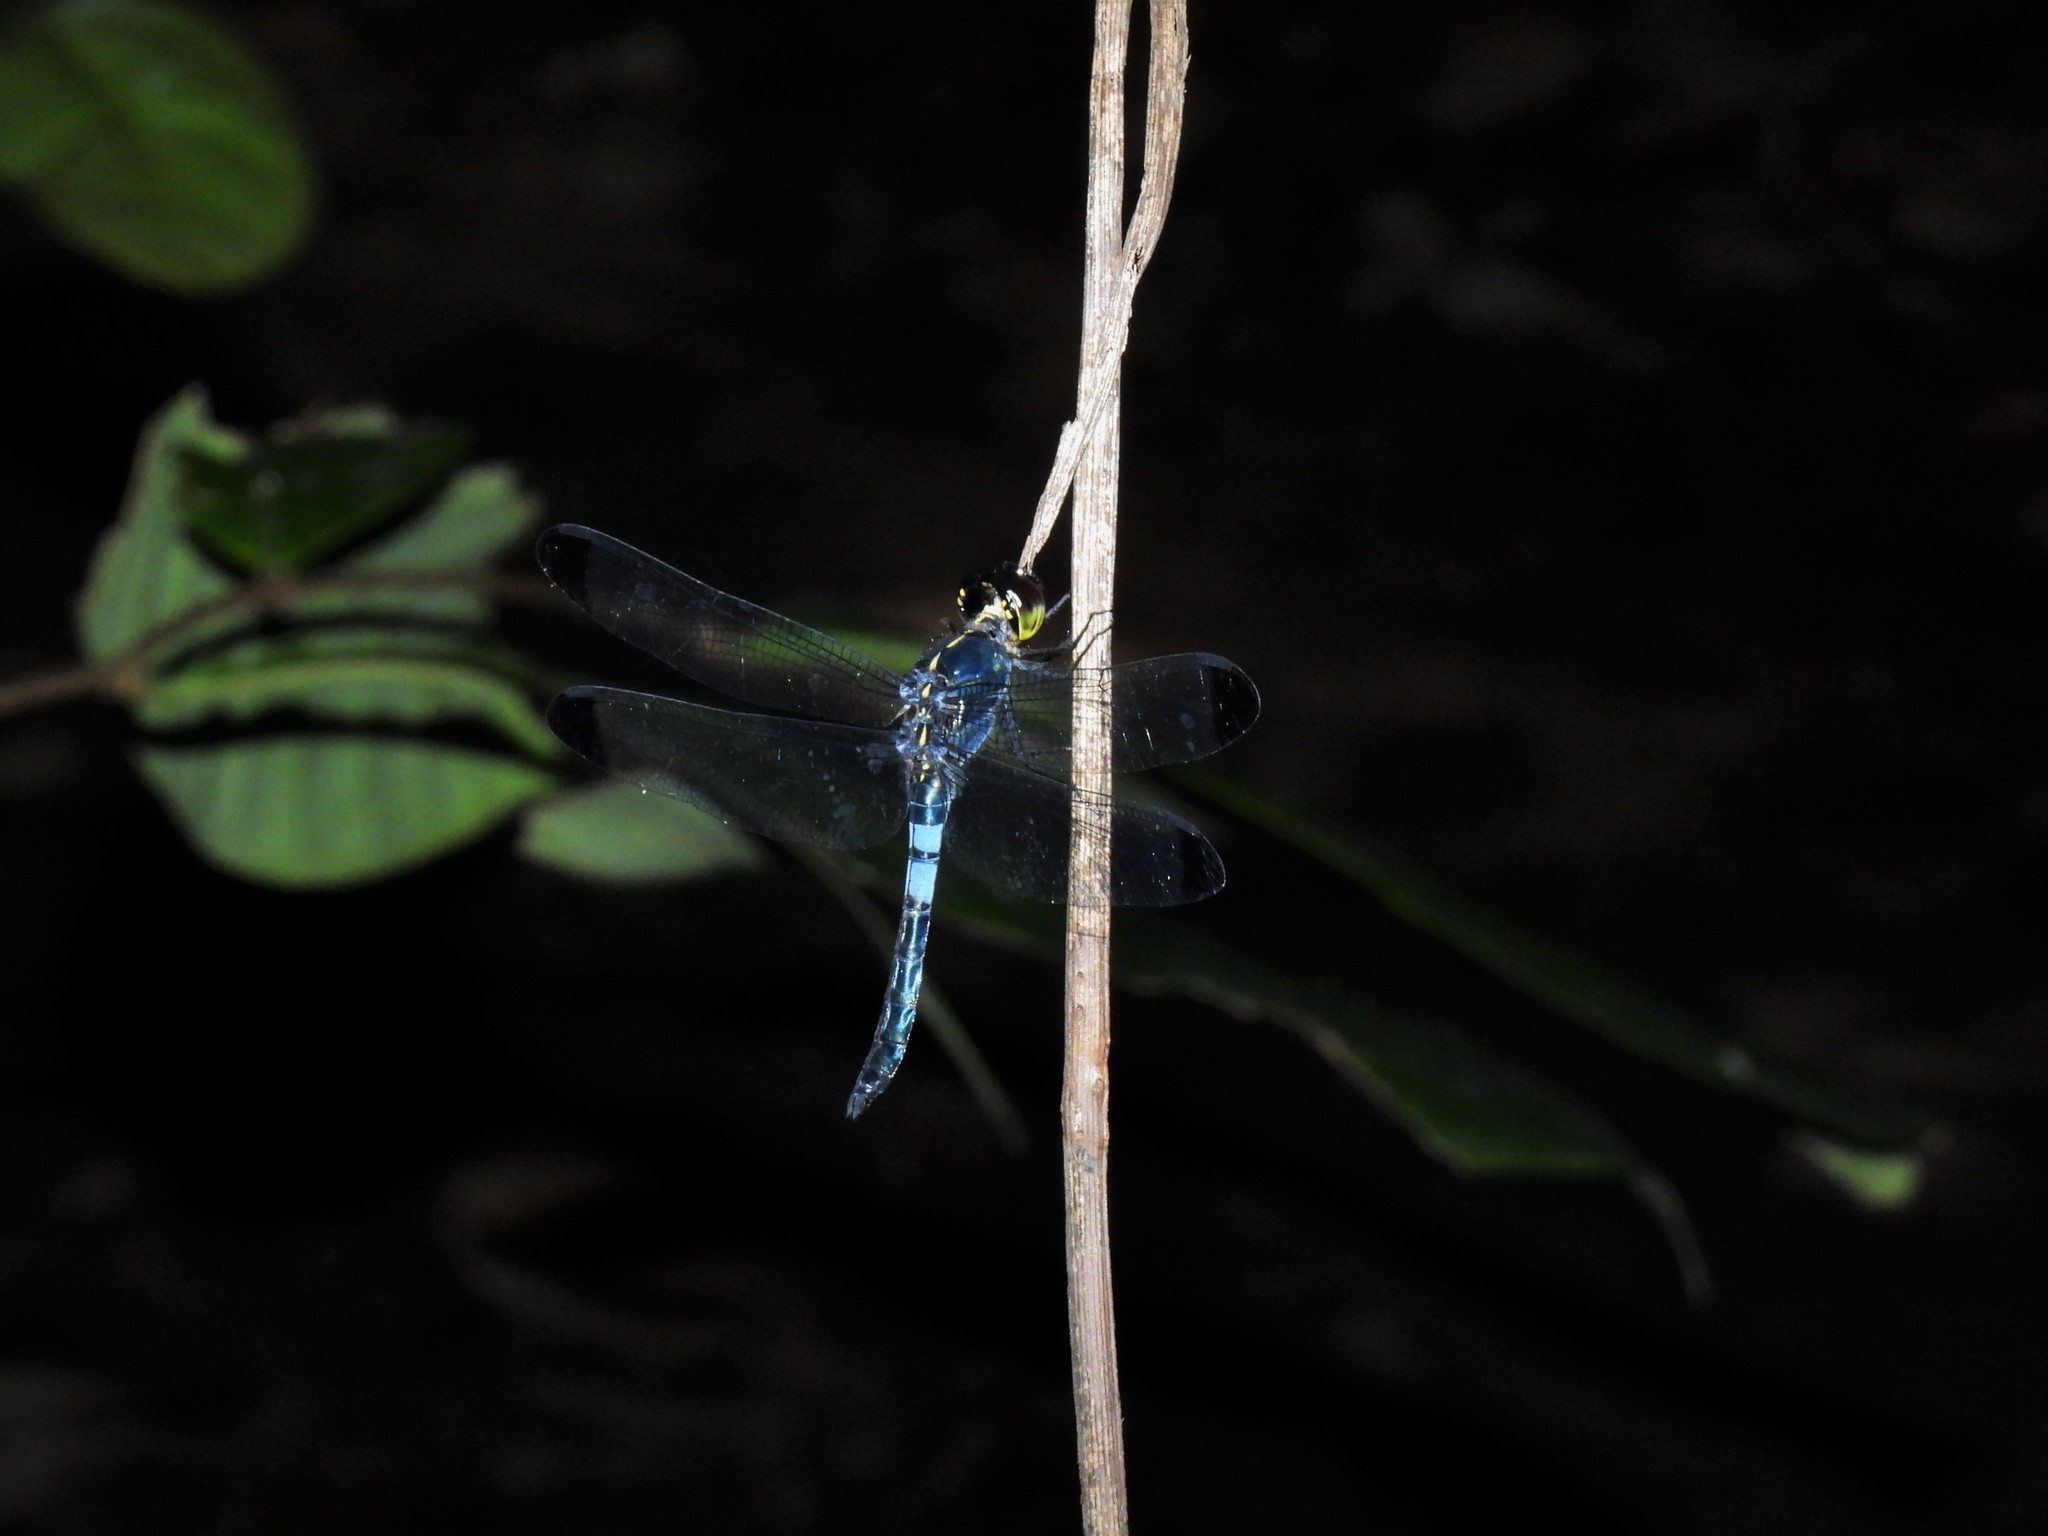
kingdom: Animalia
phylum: Arthropoda
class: Insecta
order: Odonata
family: Libellulidae
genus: Cratilla
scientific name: Cratilla metallica
